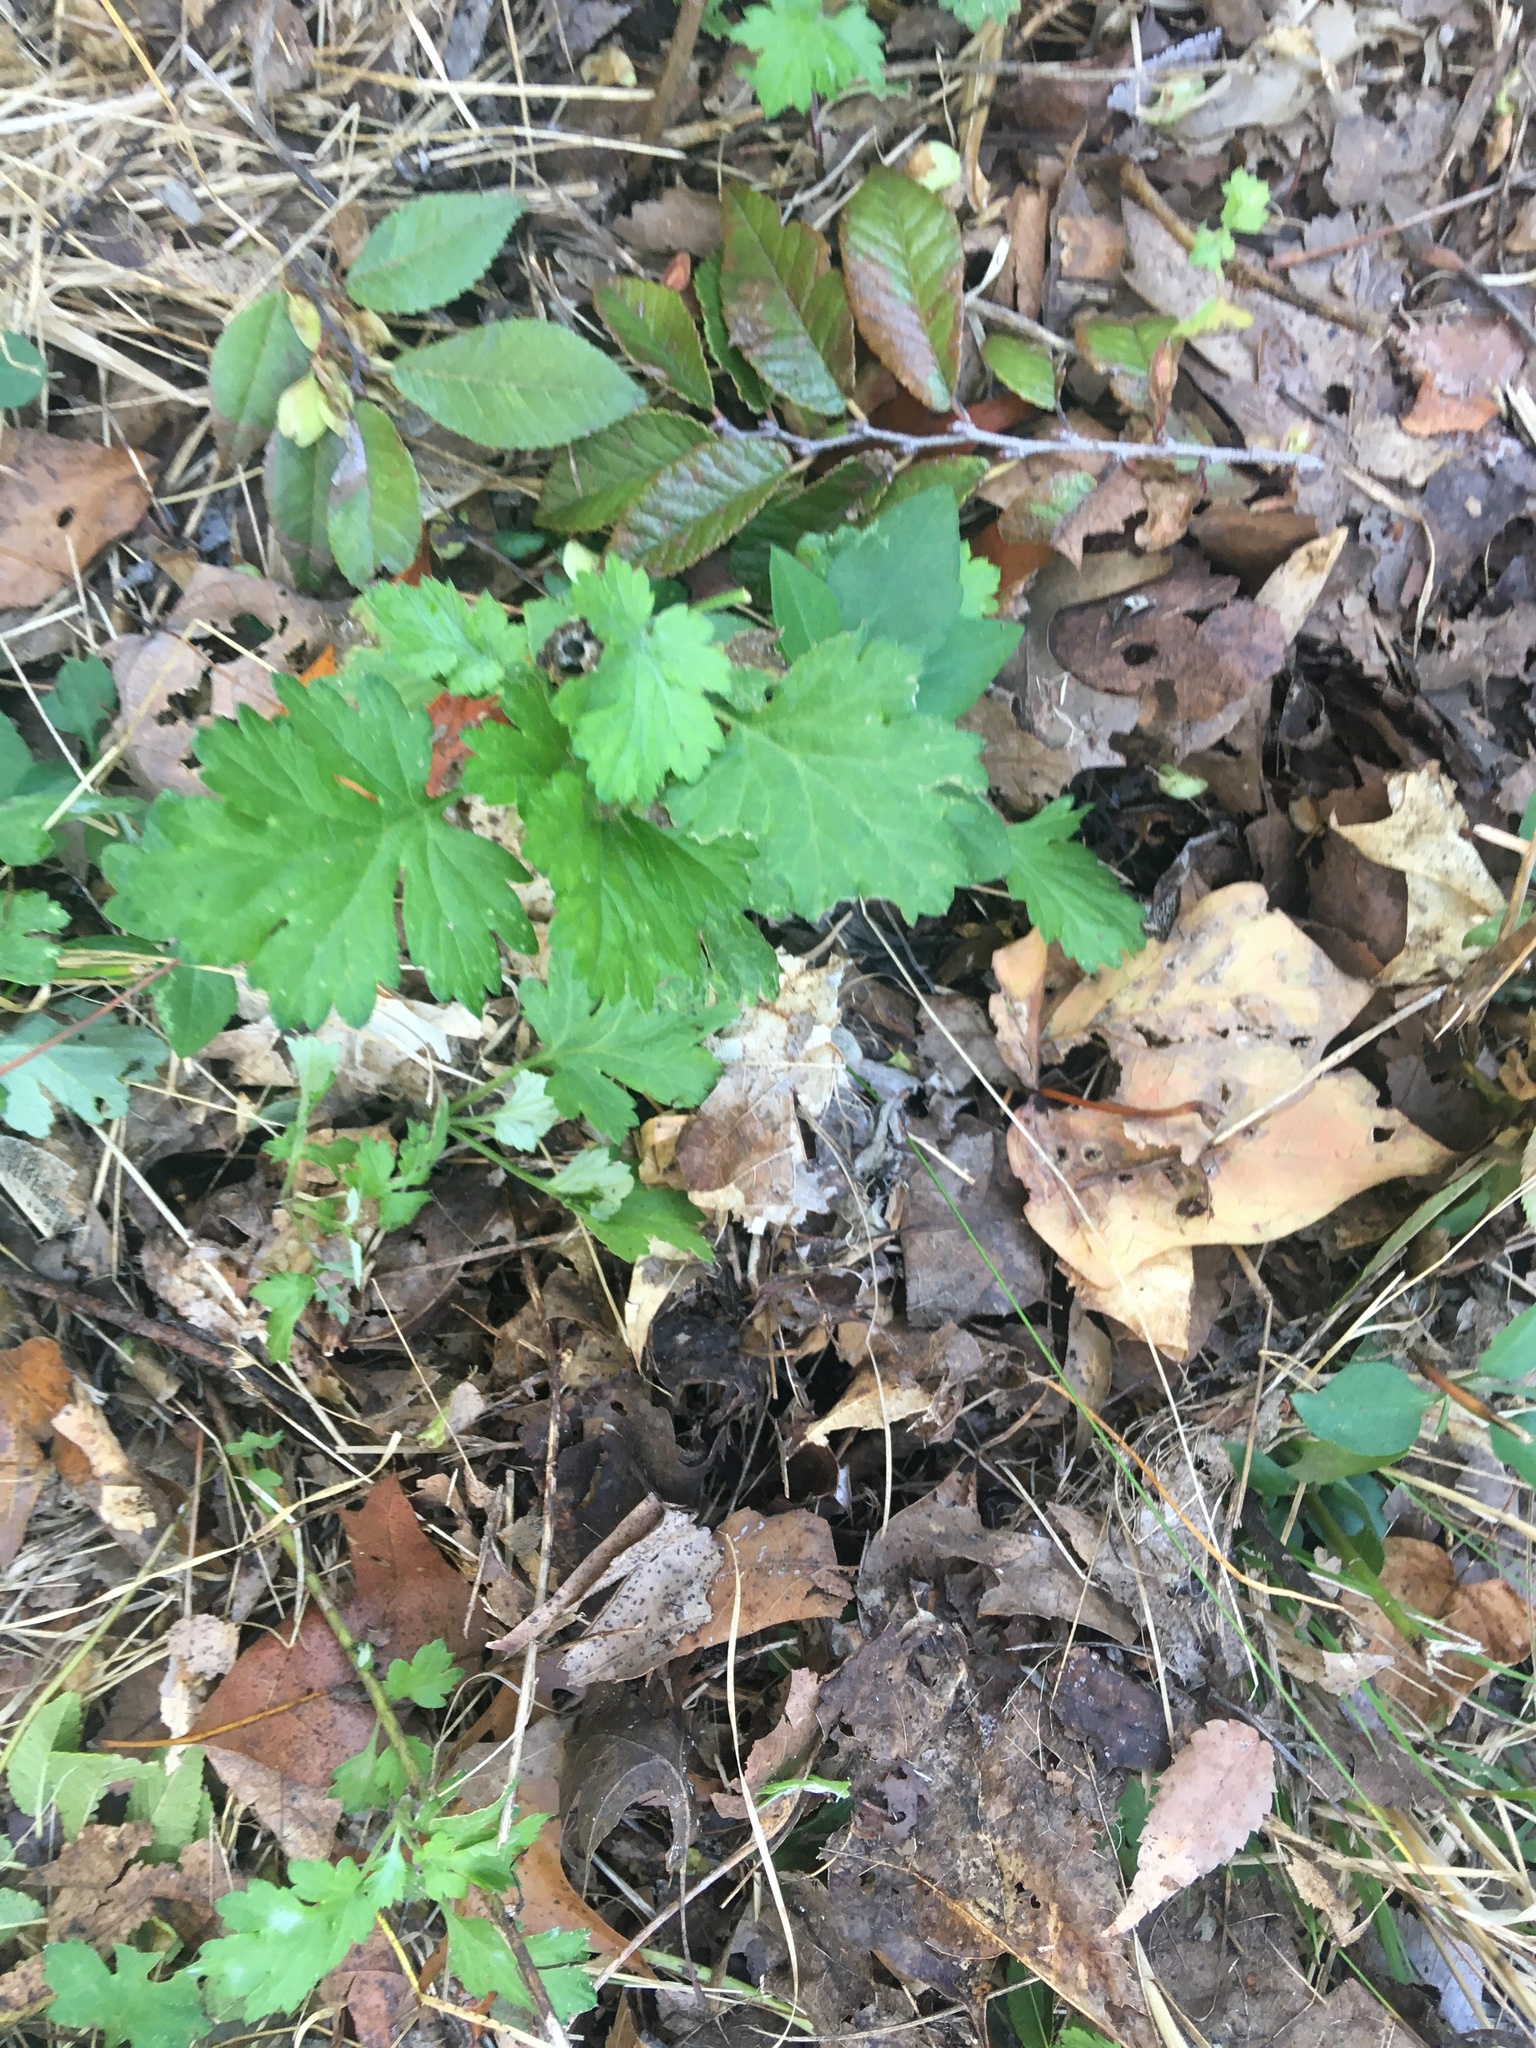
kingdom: Plantae
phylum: Tracheophyta
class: Magnoliopsida
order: Asterales
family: Asteraceae
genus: Artemisia
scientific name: Artemisia vulgaris
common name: Mugwort
